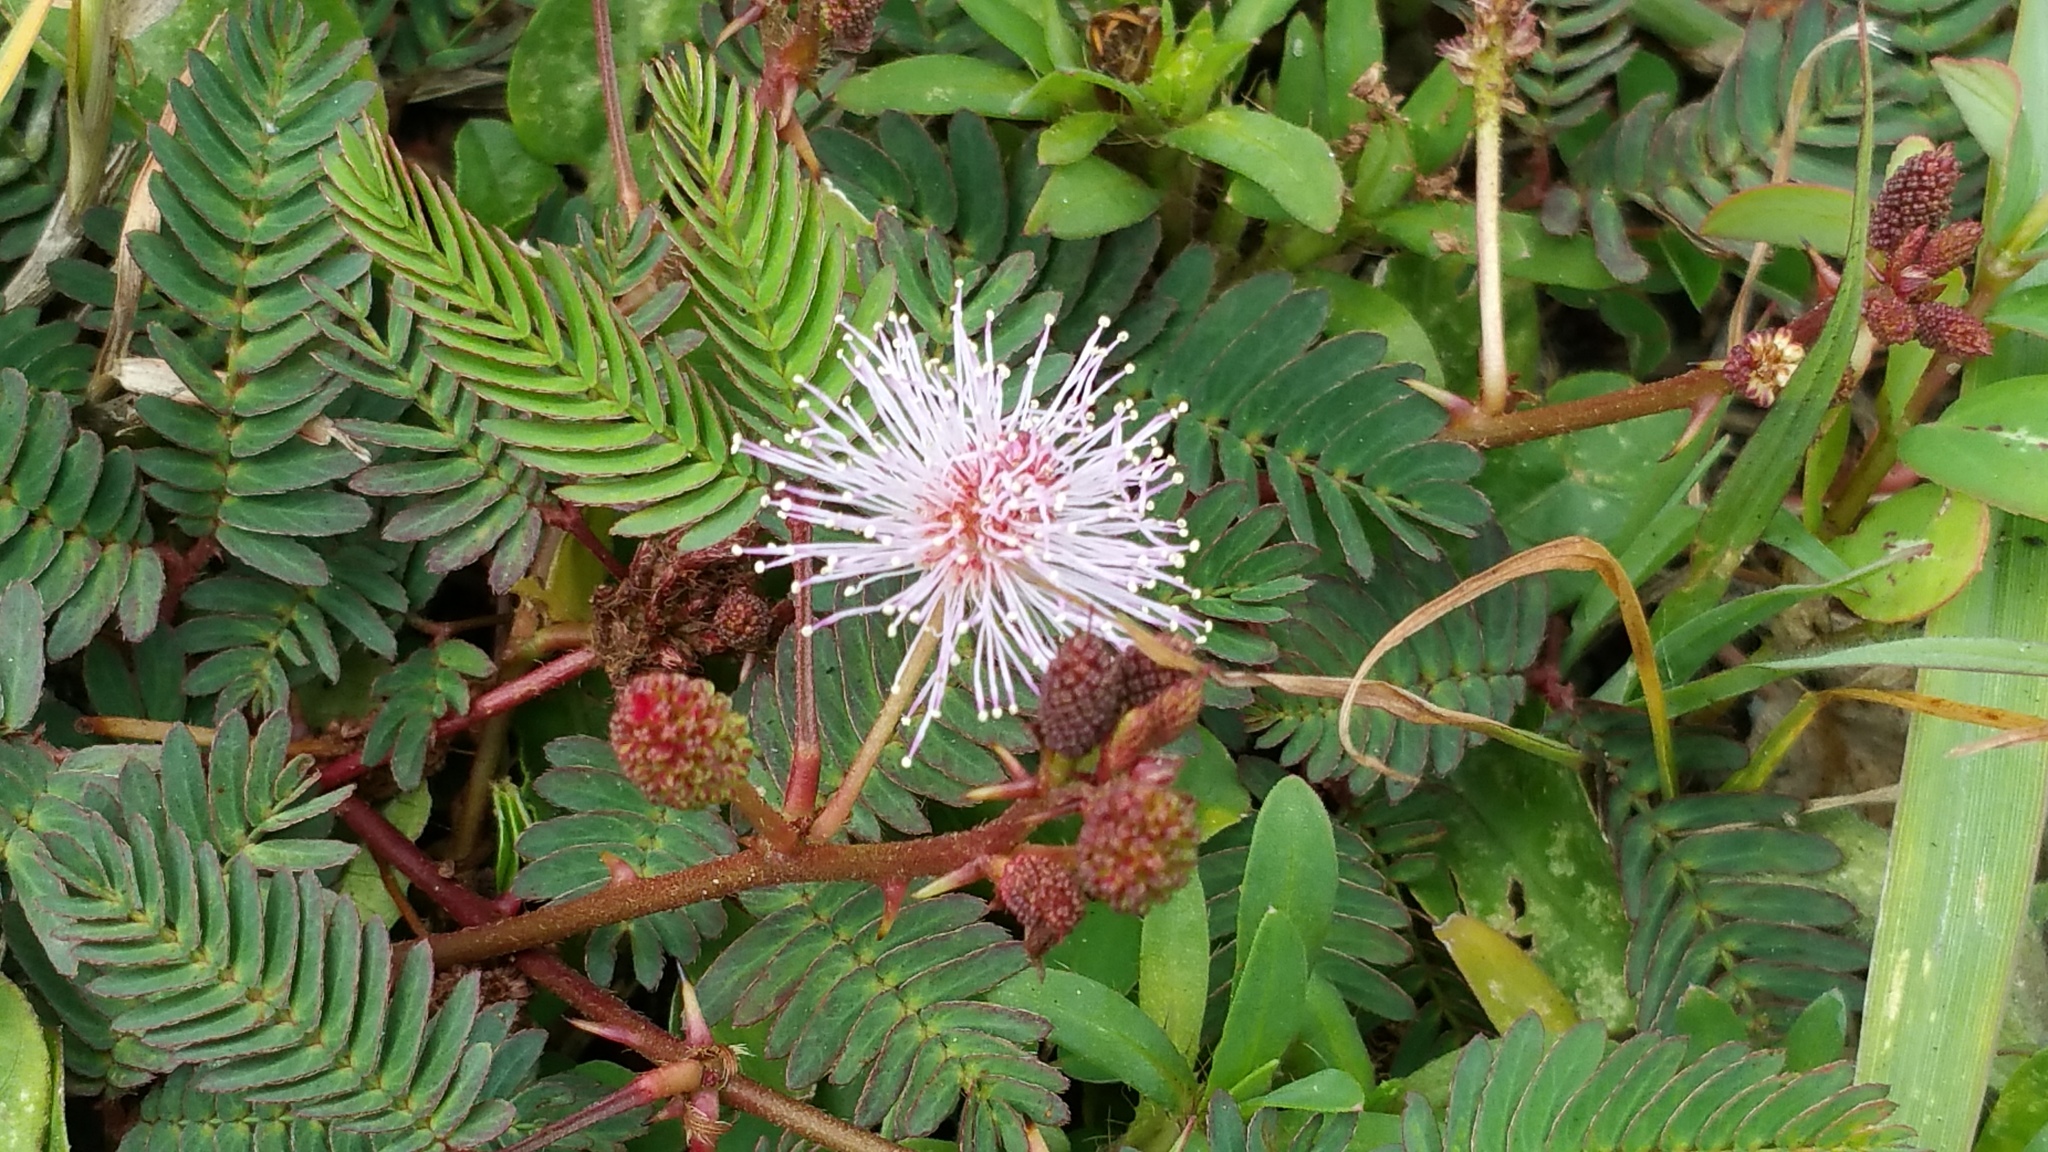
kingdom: Plantae
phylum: Tracheophyta
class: Magnoliopsida
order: Fabales
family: Fabaceae
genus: Mimosa
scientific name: Mimosa pudica
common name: Sensitive plant
